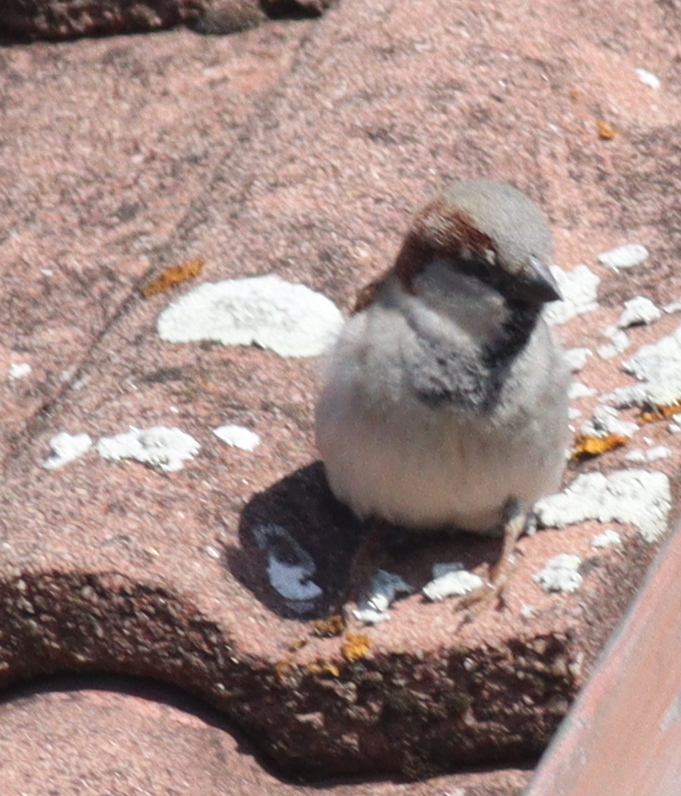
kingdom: Animalia
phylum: Chordata
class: Aves
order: Passeriformes
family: Passeridae
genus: Passer
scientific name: Passer domesticus
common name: House sparrow
